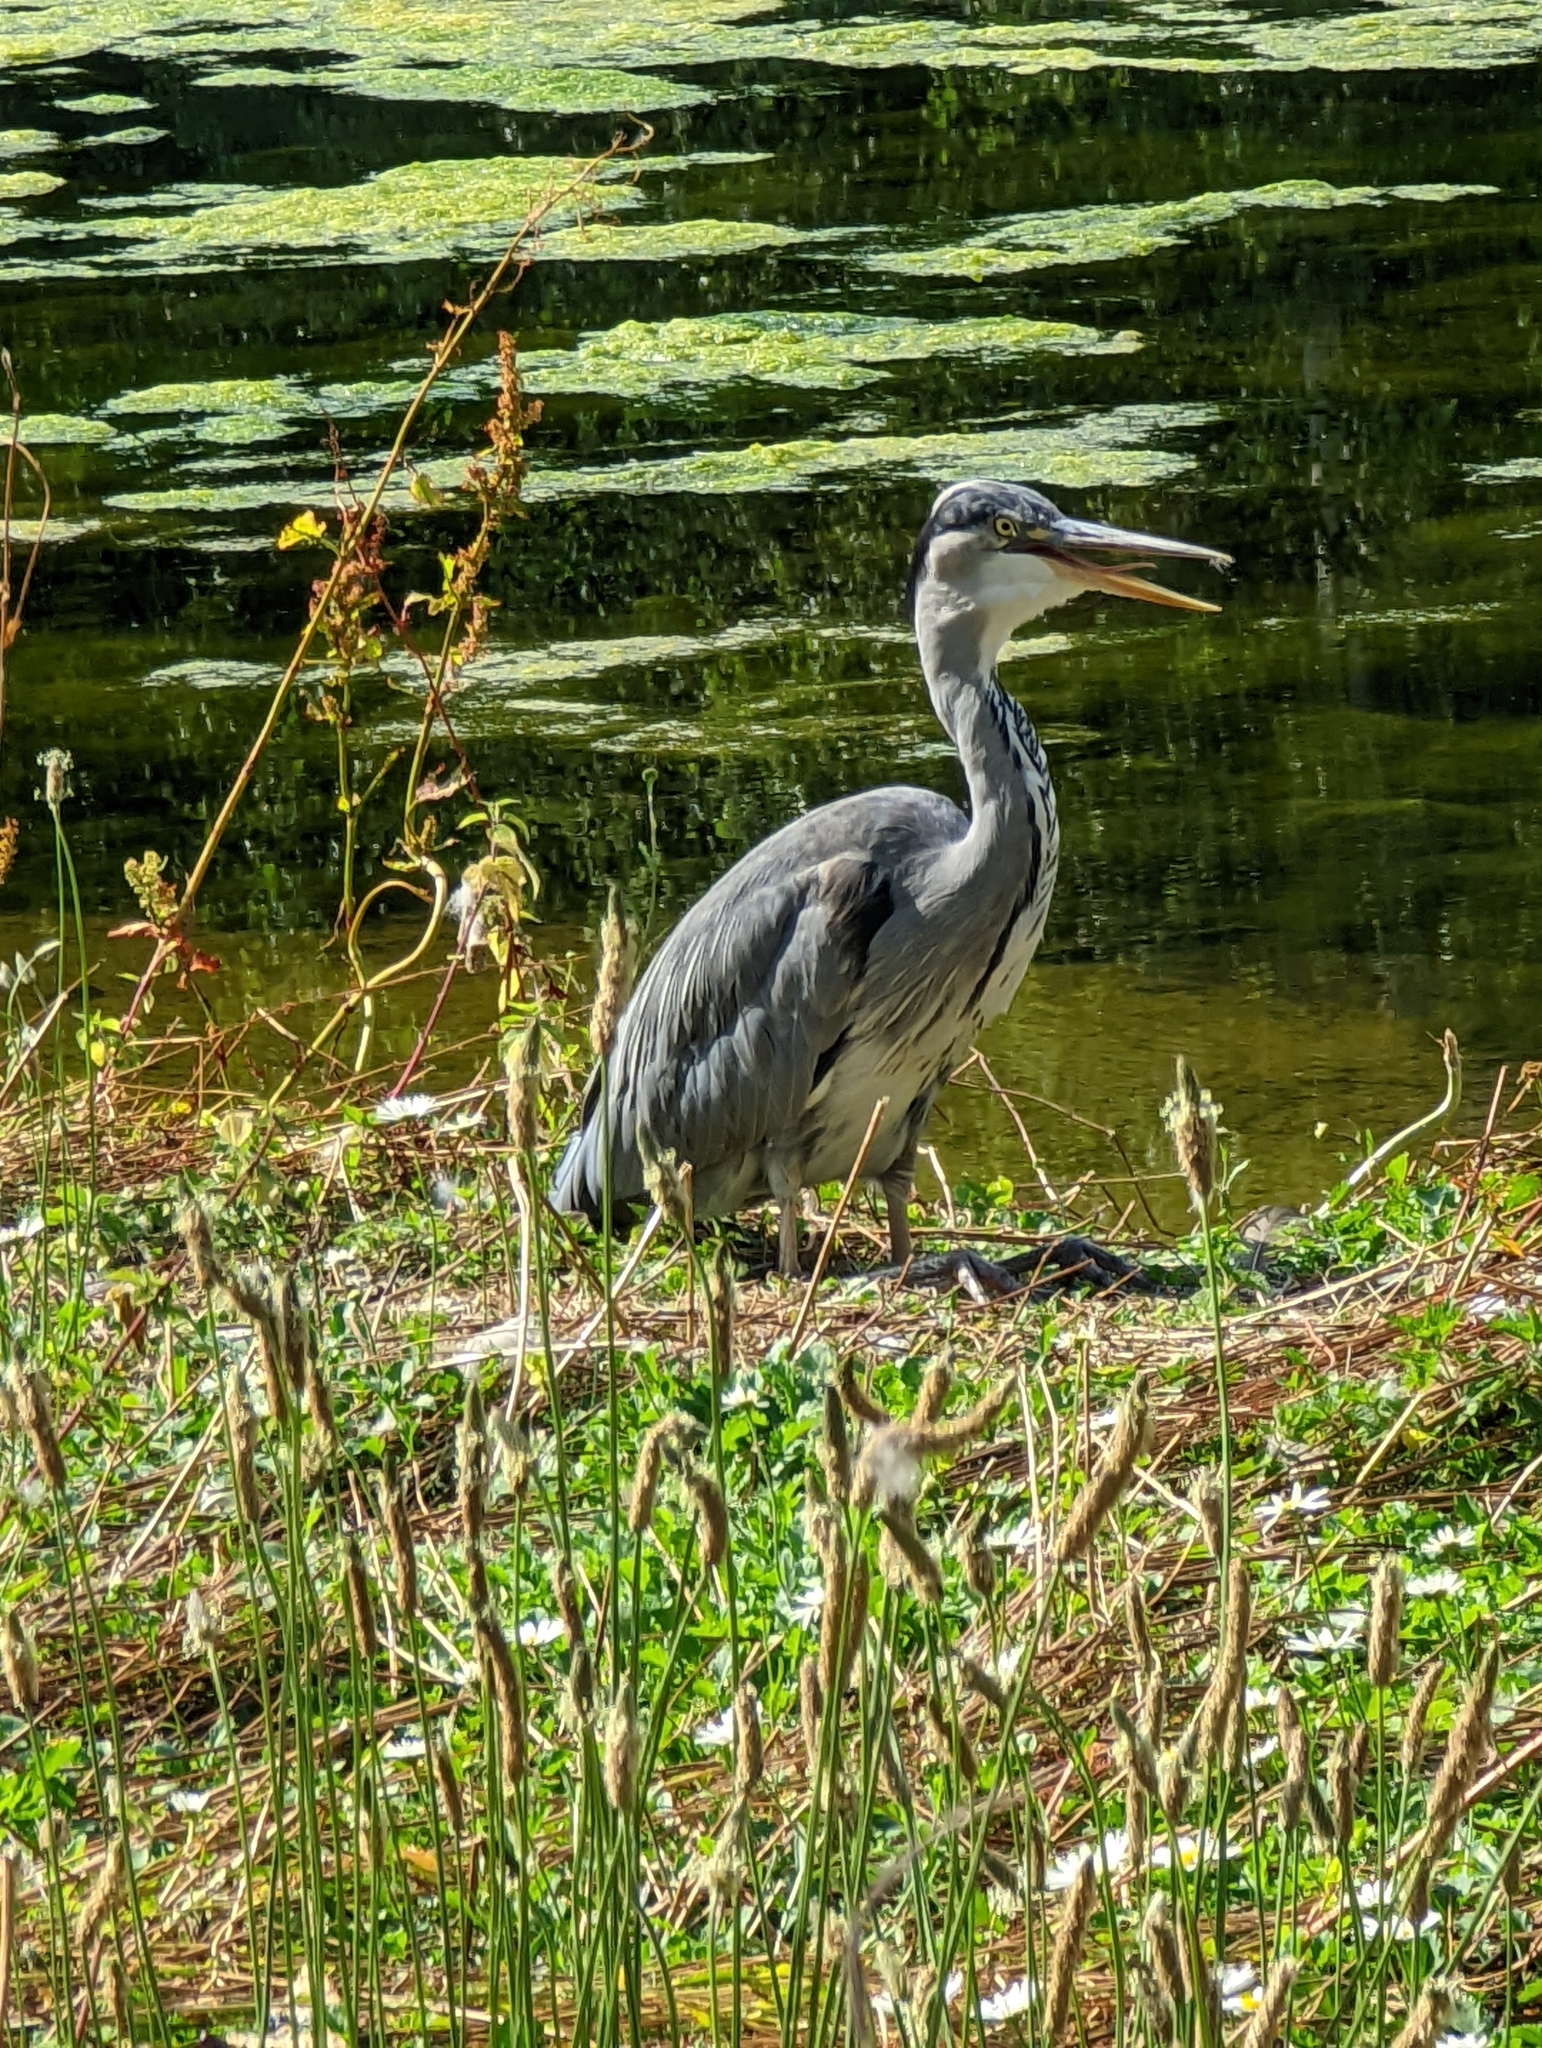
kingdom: Animalia
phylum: Chordata
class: Aves
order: Pelecaniformes
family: Ardeidae
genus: Ardea
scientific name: Ardea cinerea
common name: Grey heron
